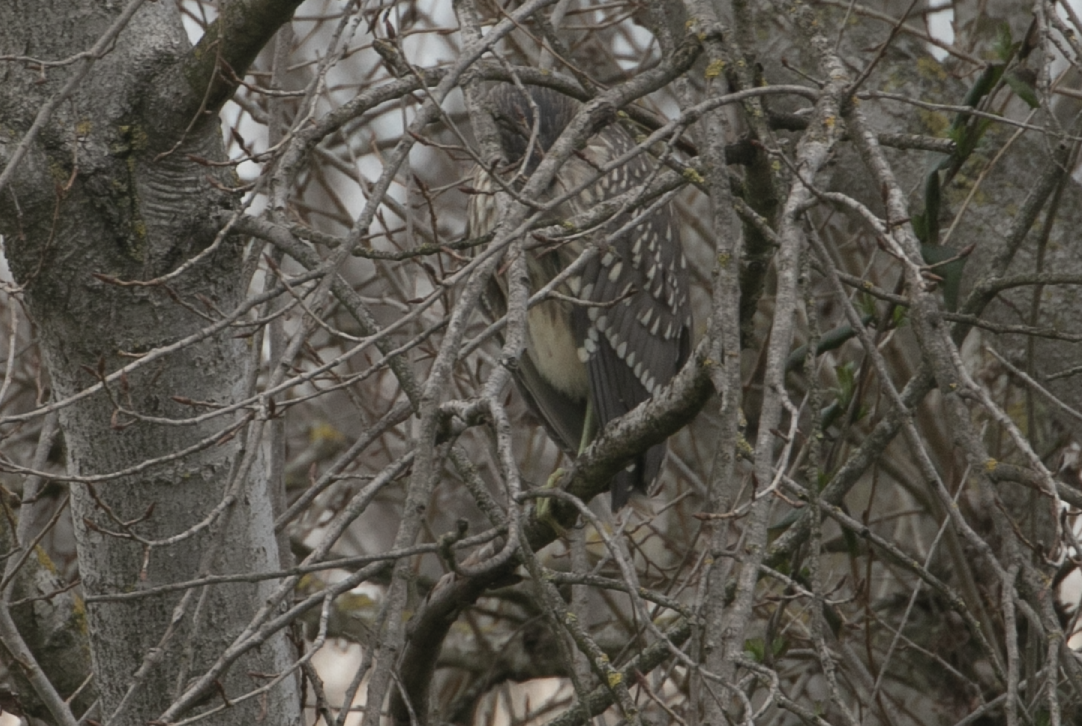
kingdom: Animalia
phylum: Chordata
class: Aves
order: Pelecaniformes
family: Ardeidae
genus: Nycticorax
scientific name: Nycticorax nycticorax
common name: Black-crowned night heron
